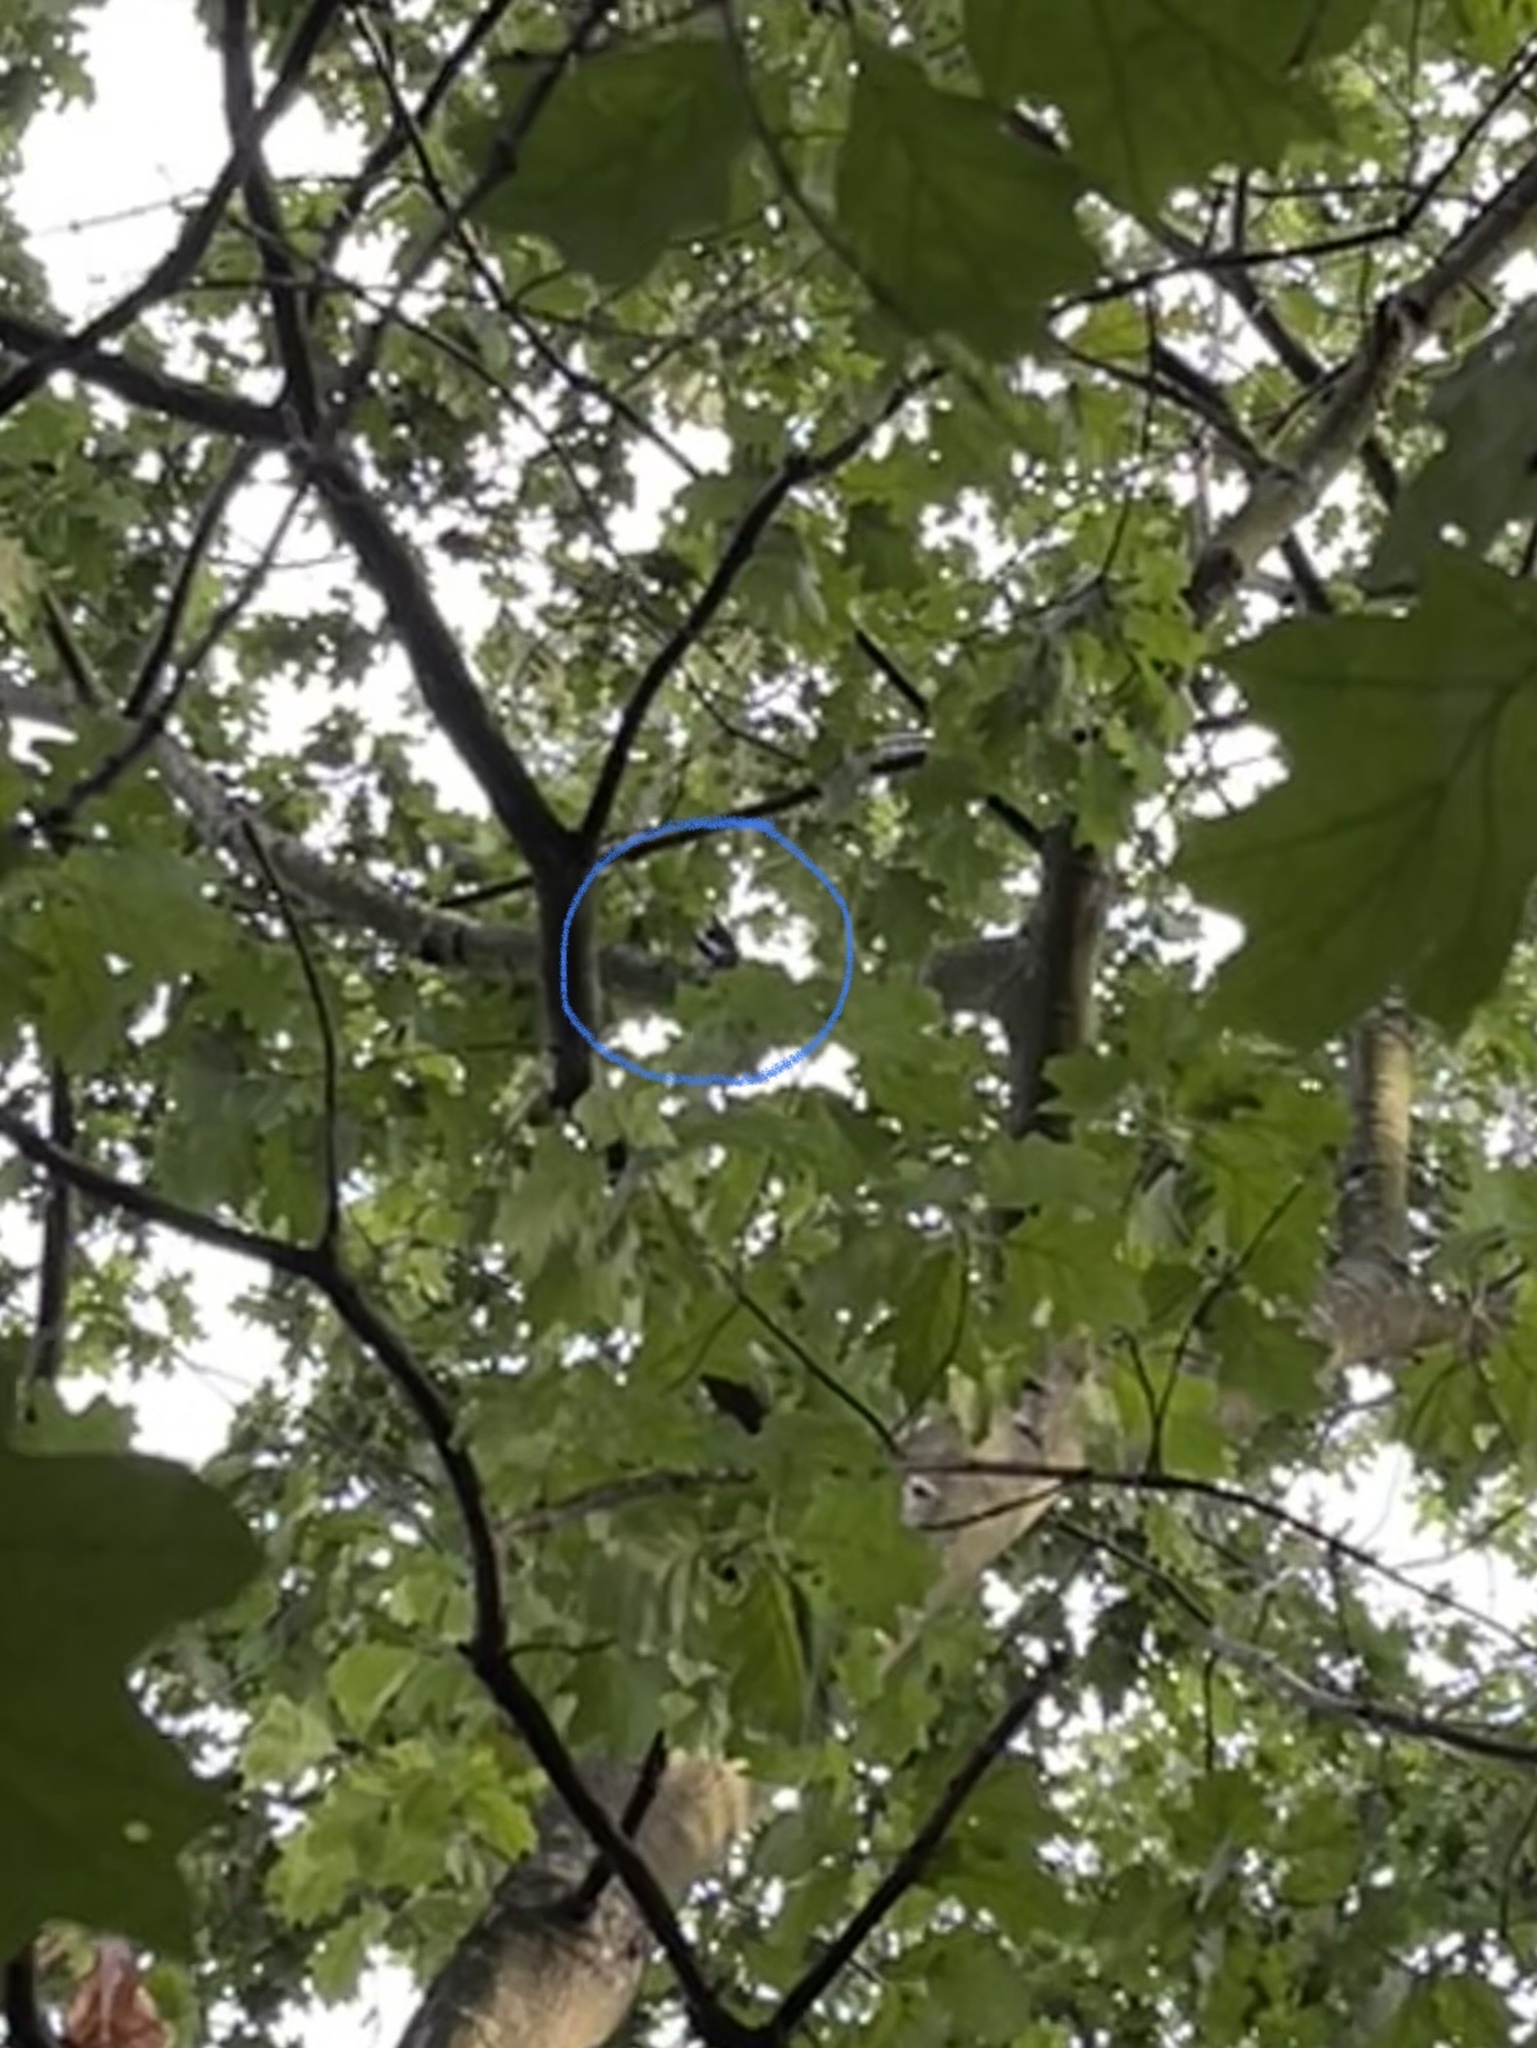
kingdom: Animalia
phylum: Chordata
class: Aves
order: Piciformes
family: Picidae
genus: Dendrocopos
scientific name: Dendrocopos major
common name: Great spotted woodpecker
